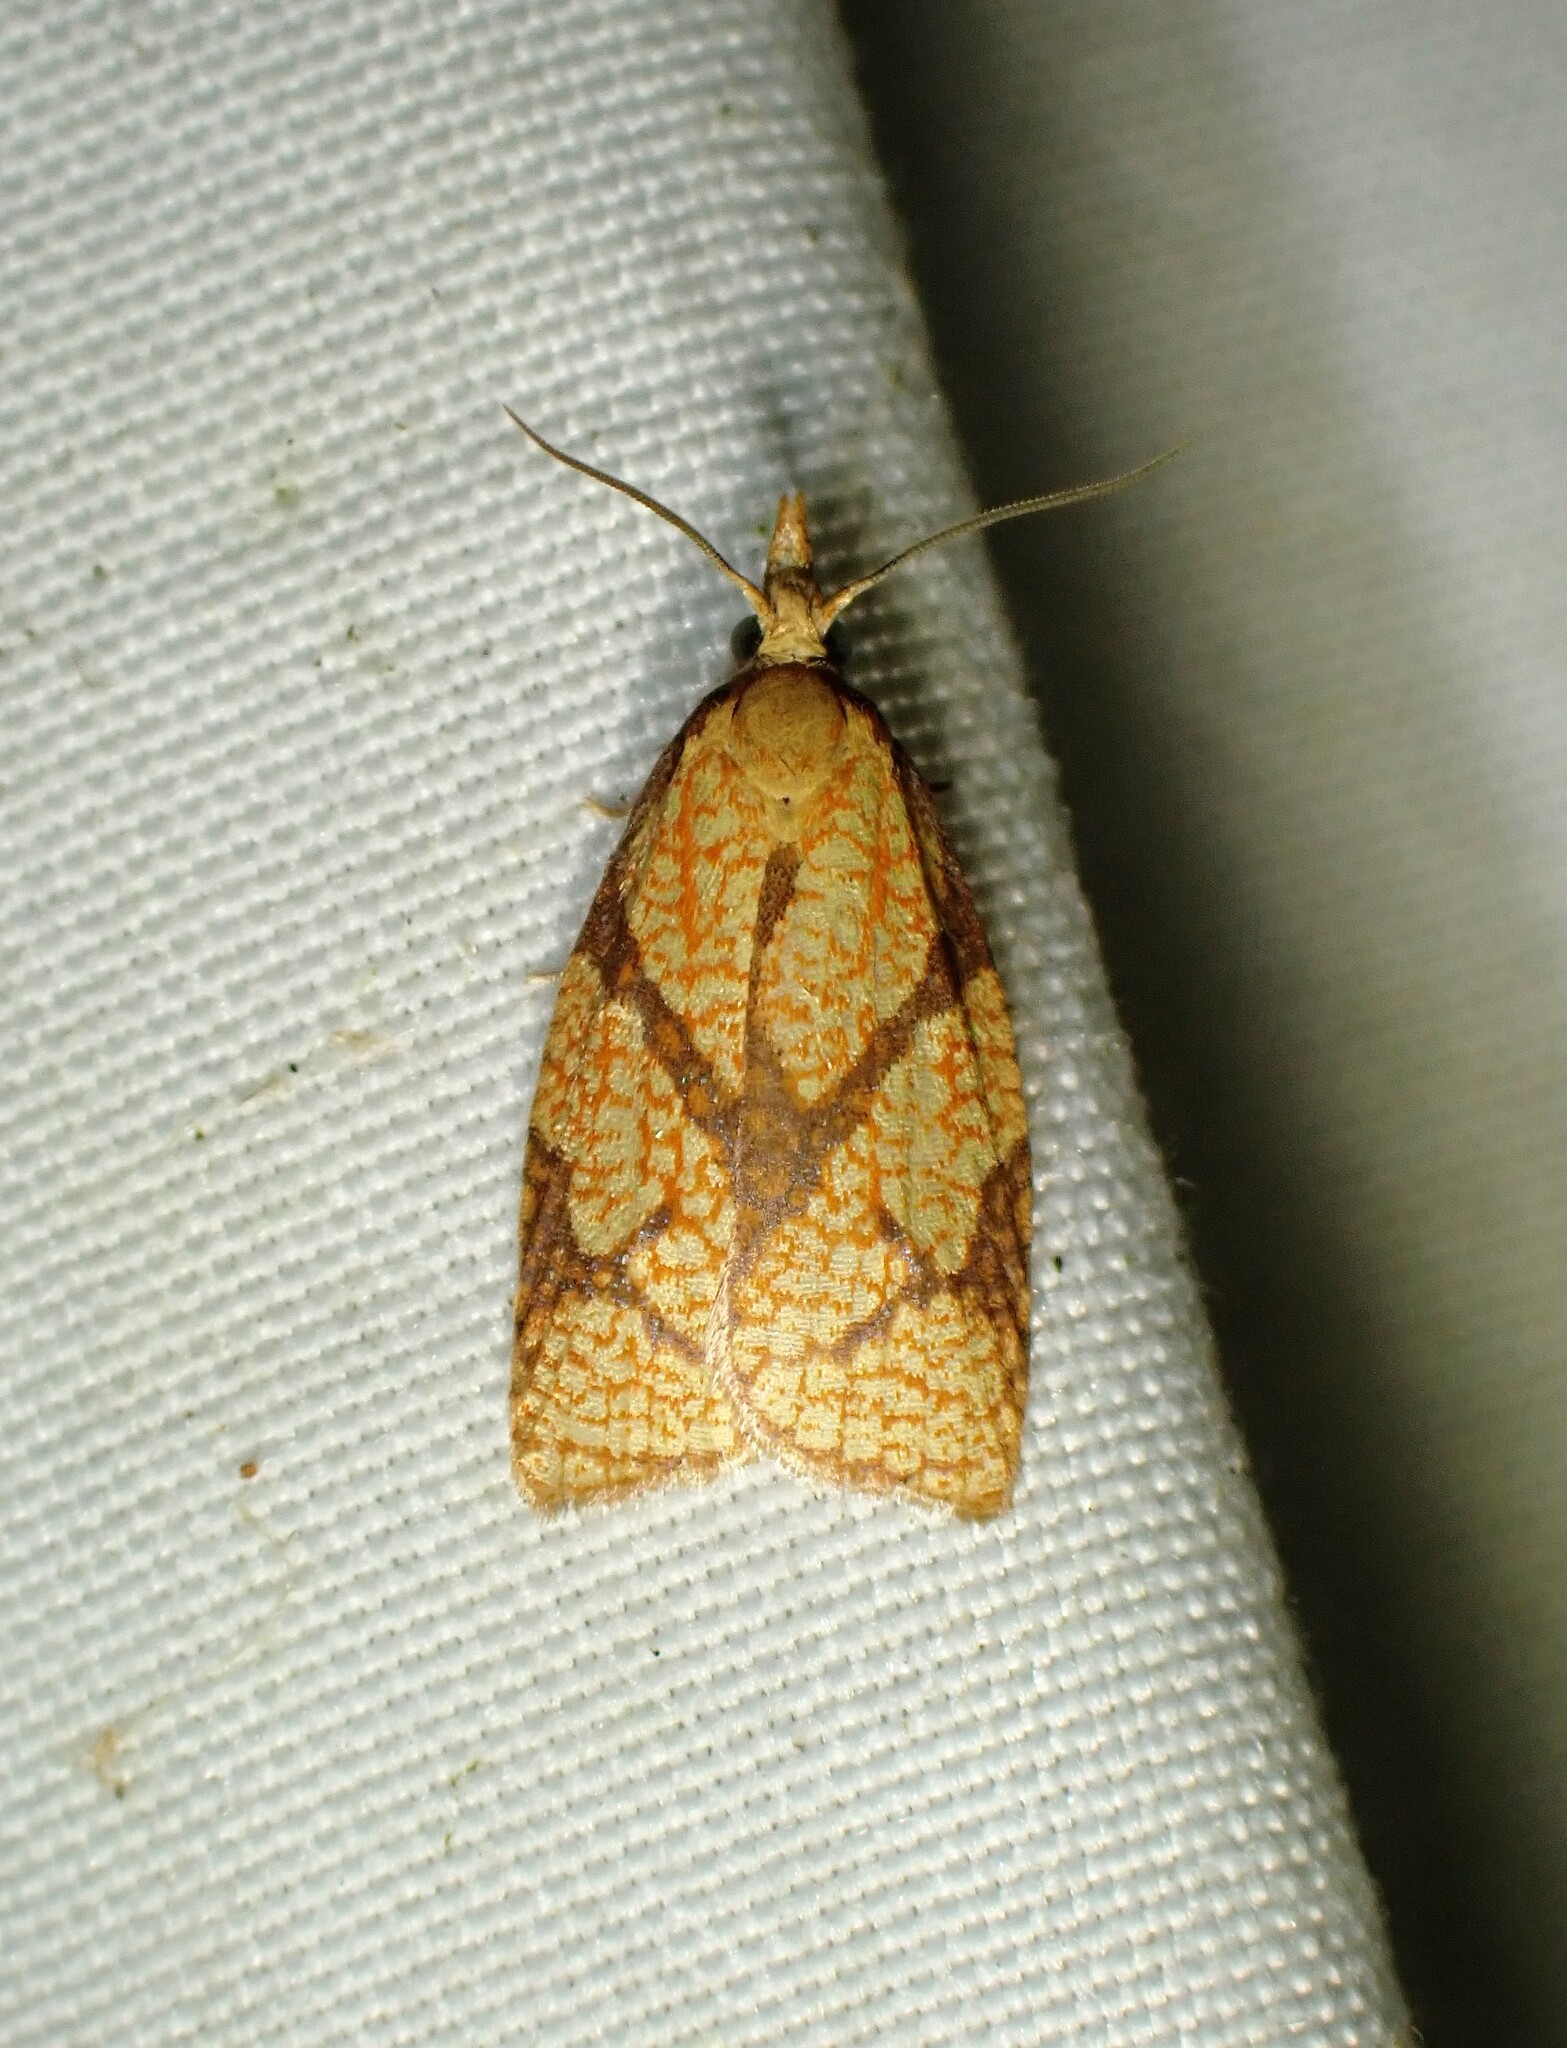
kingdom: Animalia
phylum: Arthropoda
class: Insecta
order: Lepidoptera
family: Tortricidae
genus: Cenopis
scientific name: Cenopis reticulatana
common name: Reticulated fruitworm moth
